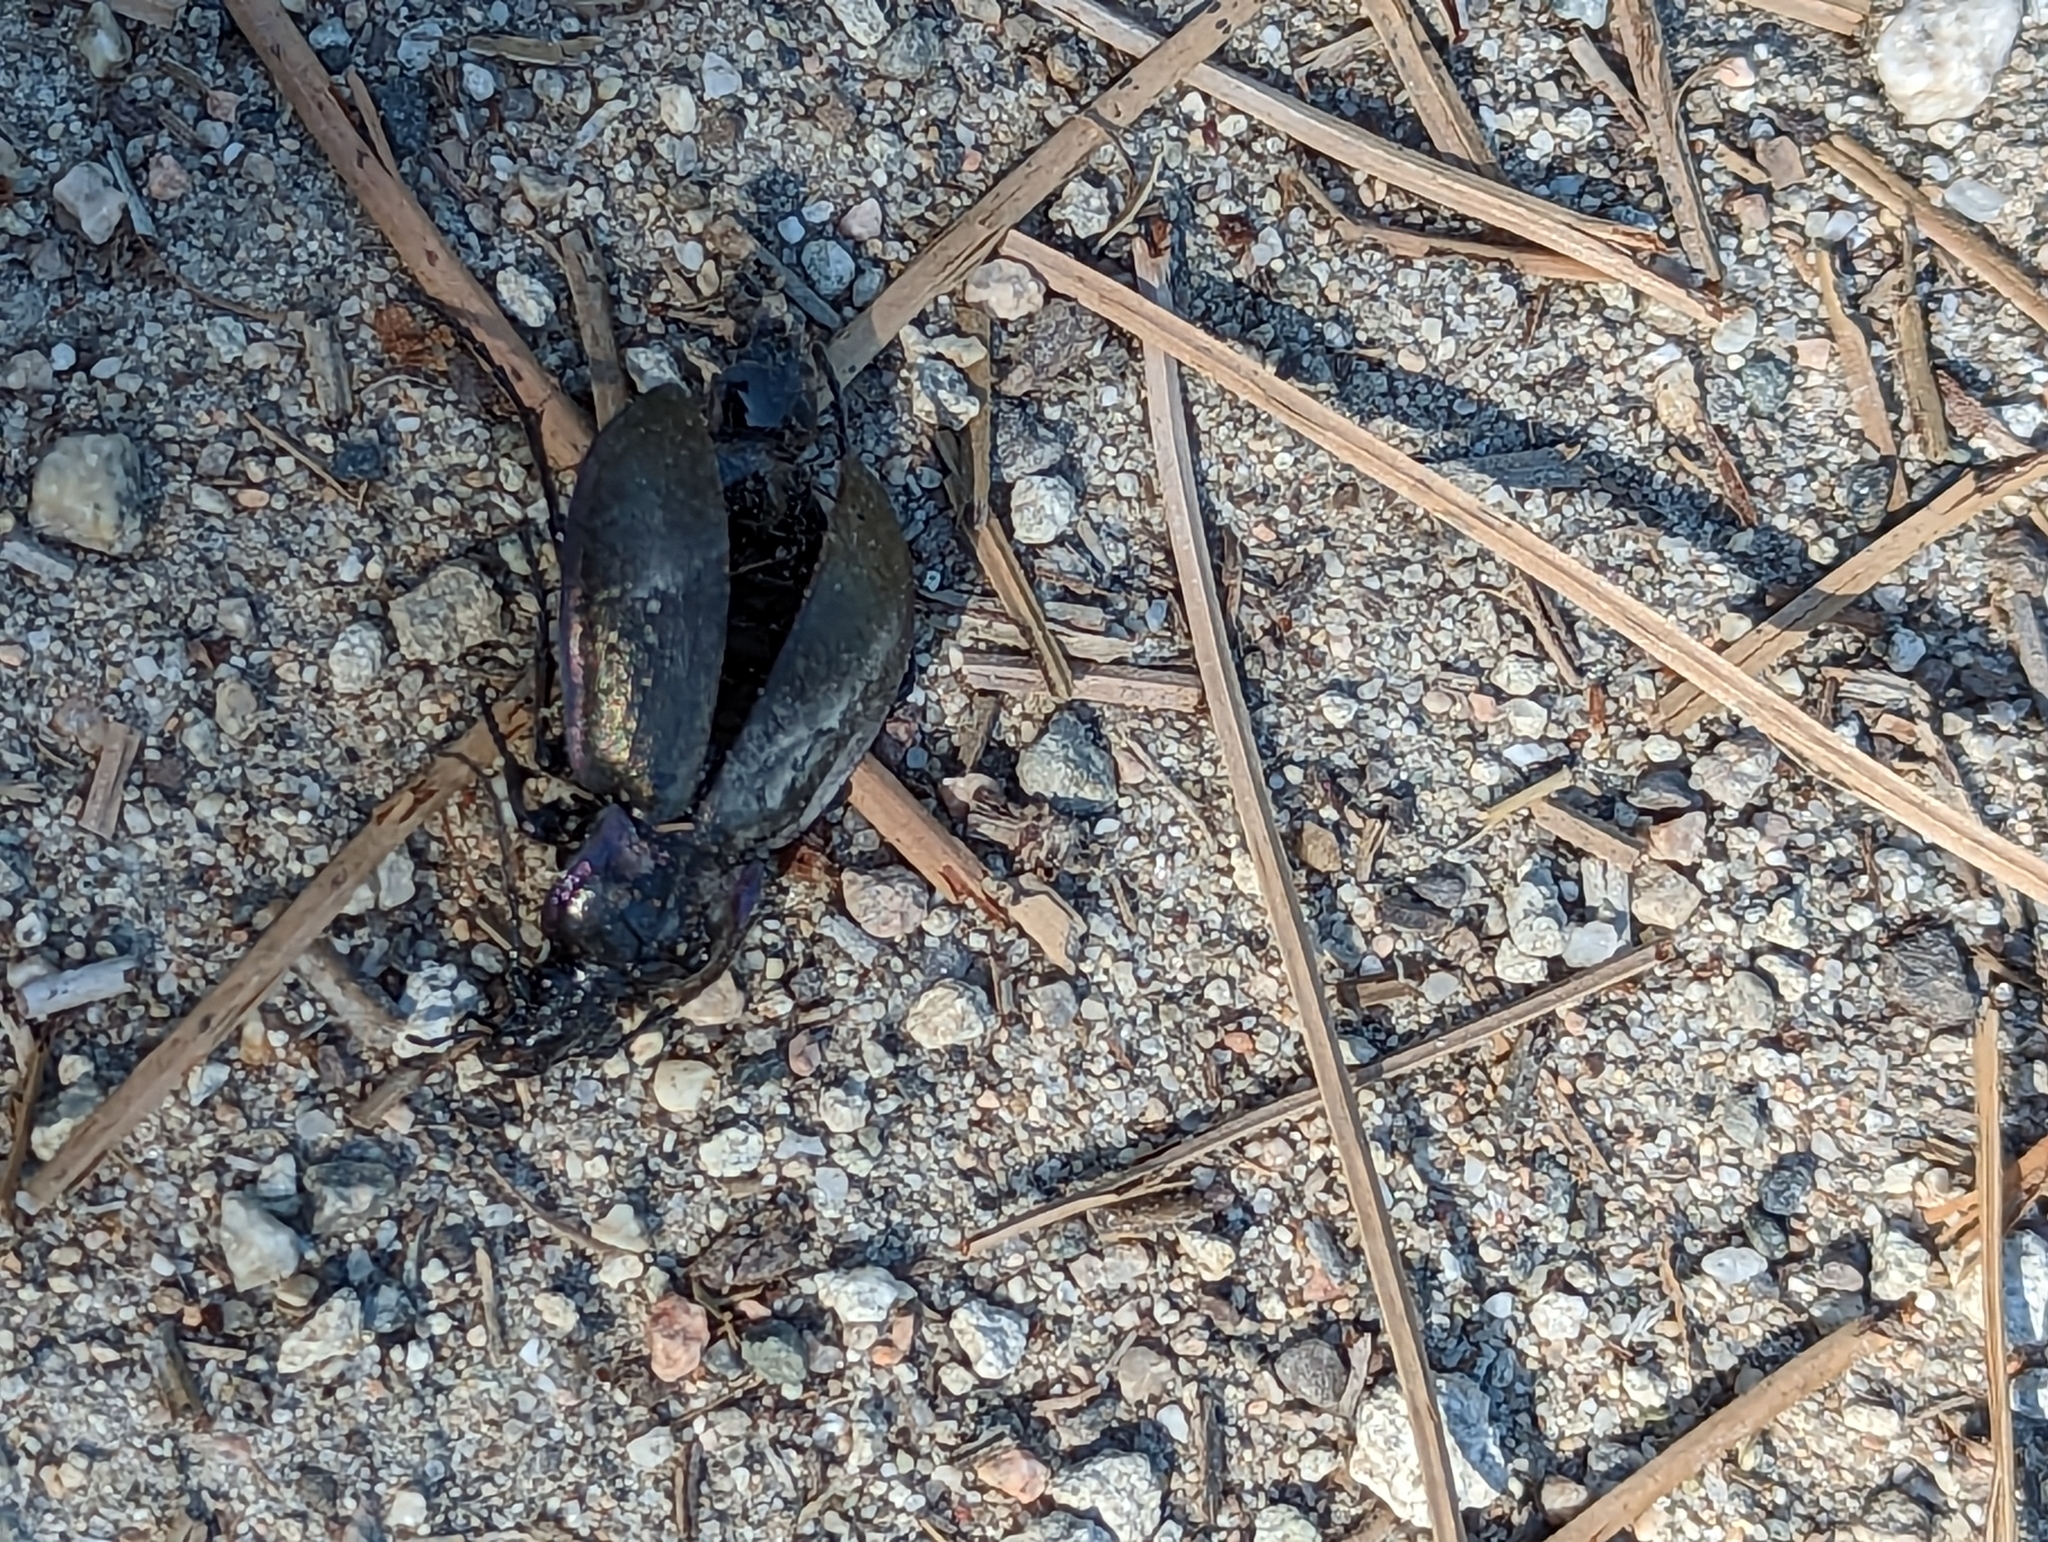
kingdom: Animalia
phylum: Arthropoda
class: Insecta
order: Coleoptera
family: Carabidae
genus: Carabus
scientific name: Carabus nemoralis
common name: European ground beetle
